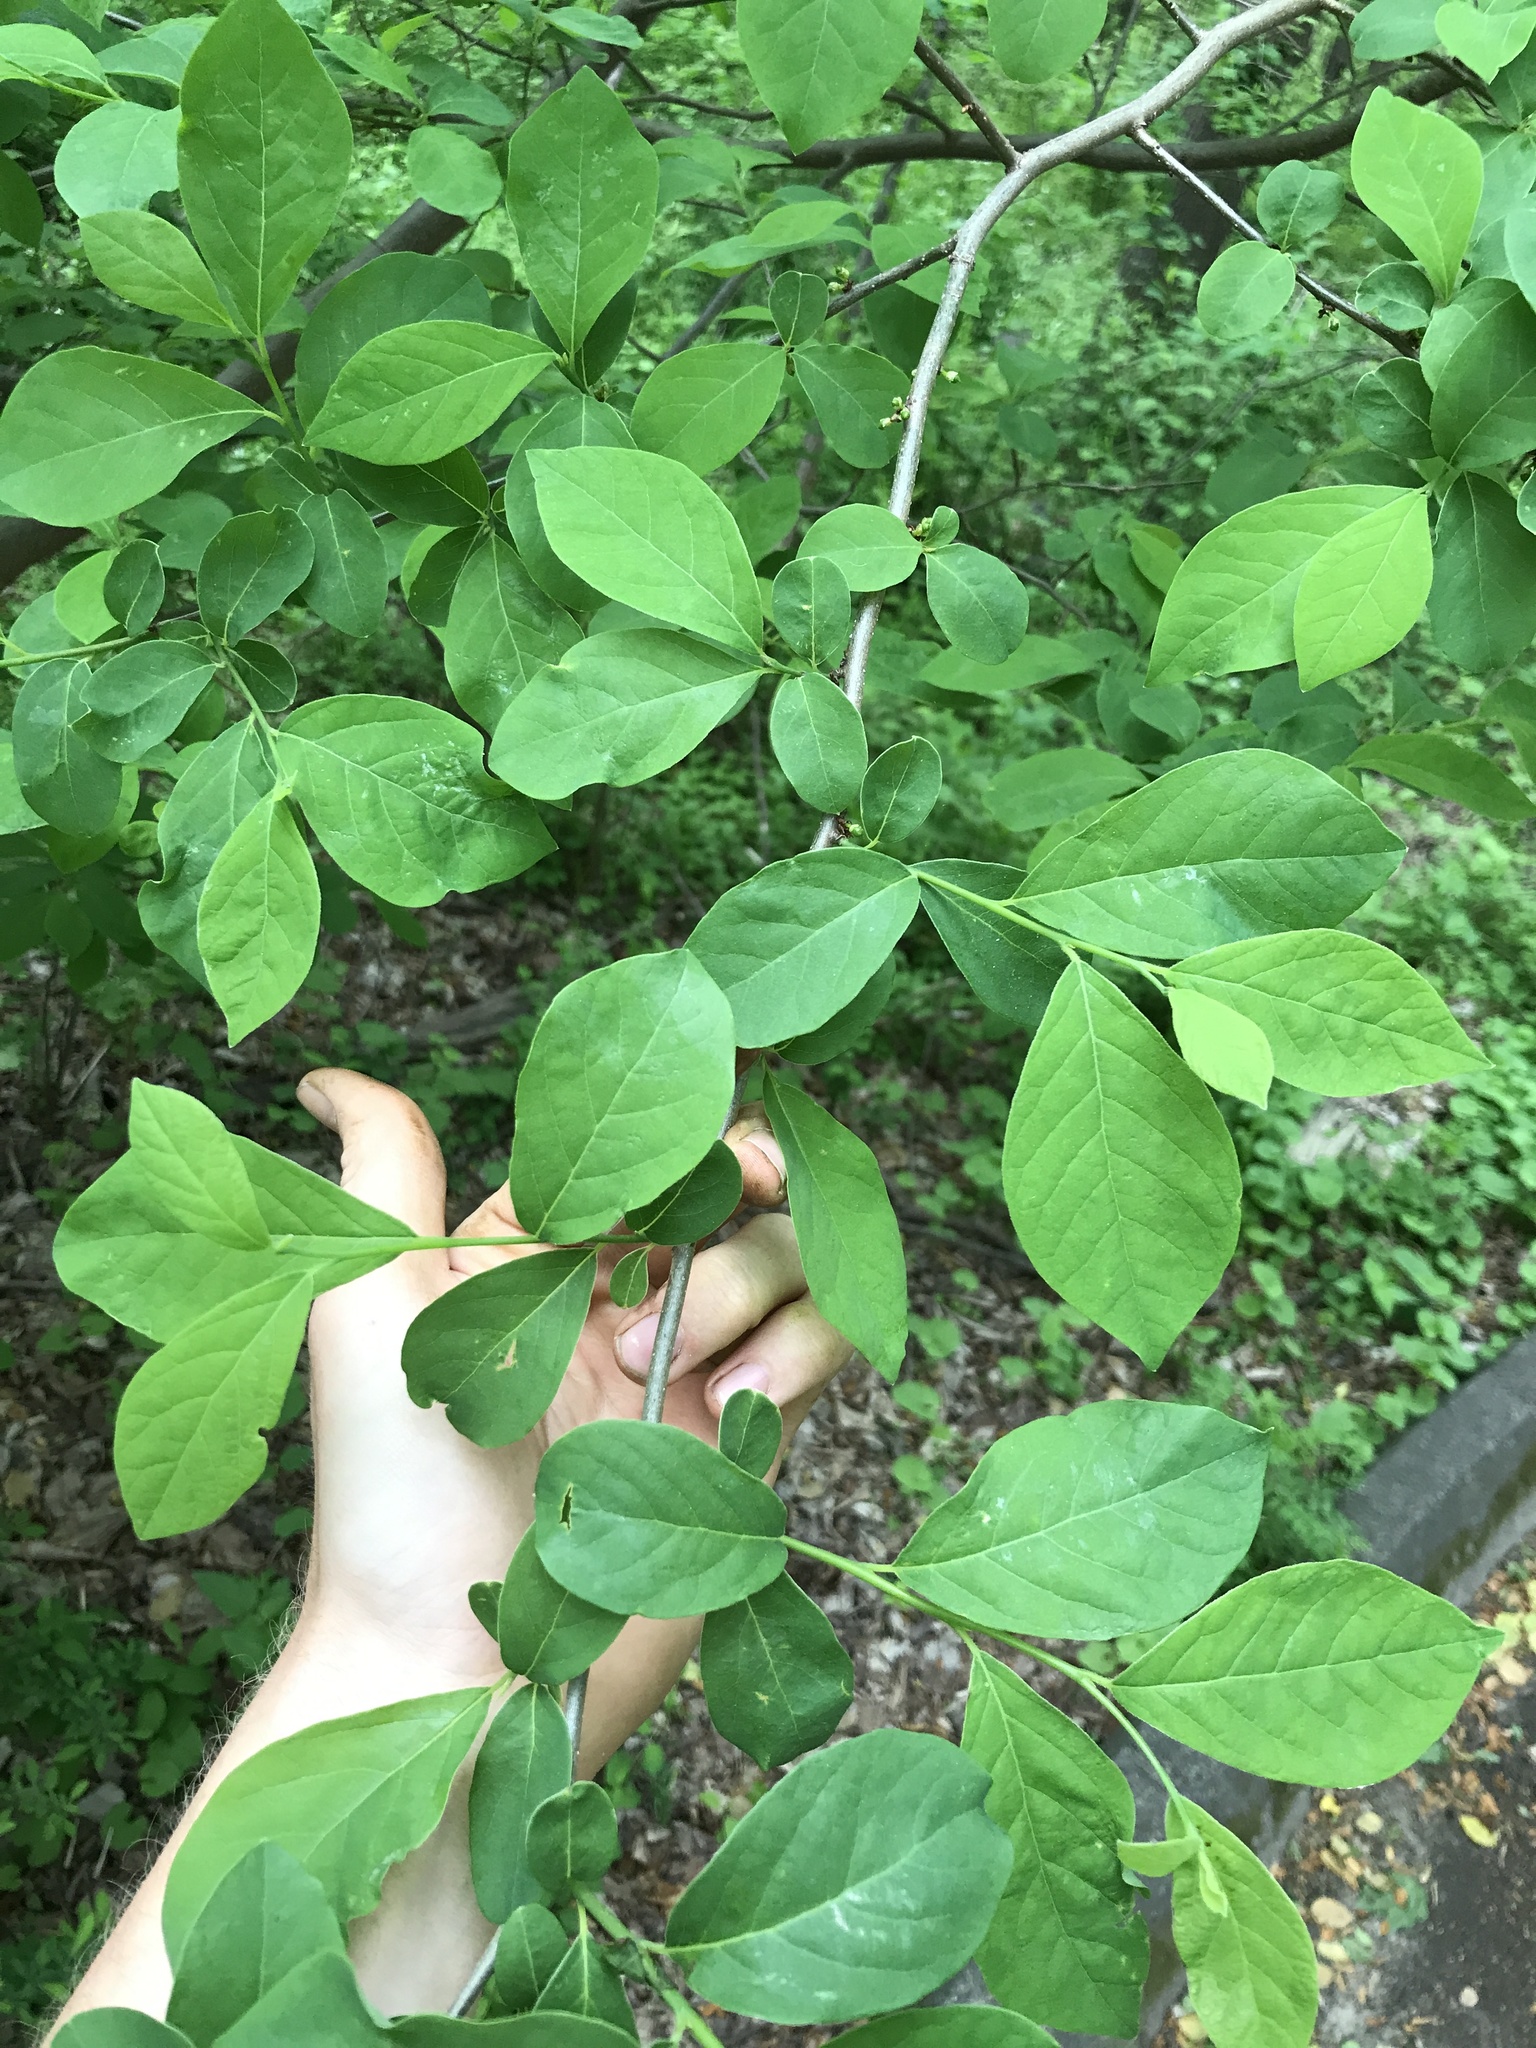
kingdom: Plantae
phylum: Tracheophyta
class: Magnoliopsida
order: Laurales
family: Lauraceae
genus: Lindera
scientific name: Lindera benzoin
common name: Spicebush
